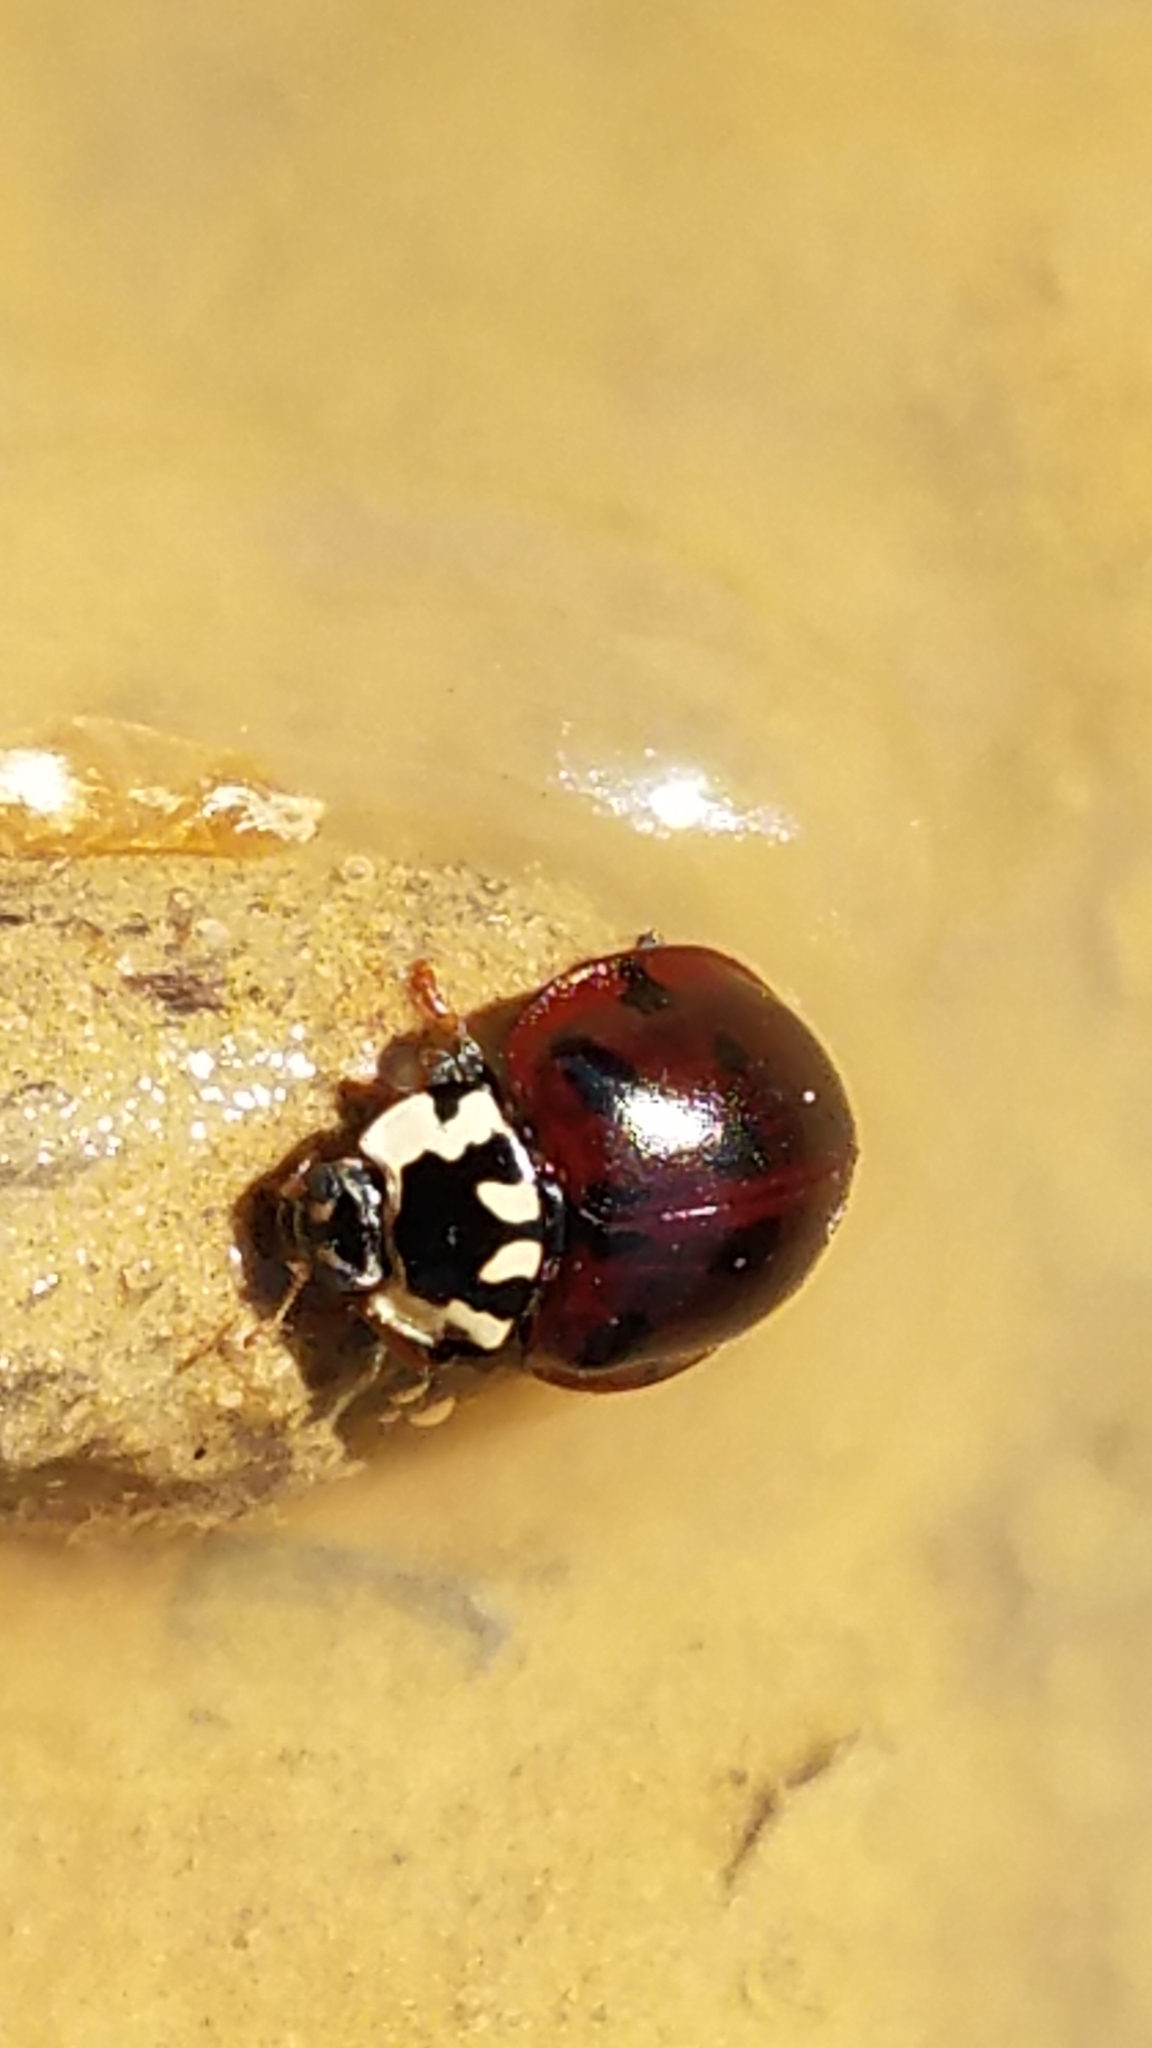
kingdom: Animalia
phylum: Arthropoda
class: Insecta
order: Coleoptera
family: Coccinellidae
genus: Anatis
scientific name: Anatis labiculata
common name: Fifteen-spotted lady beetle
